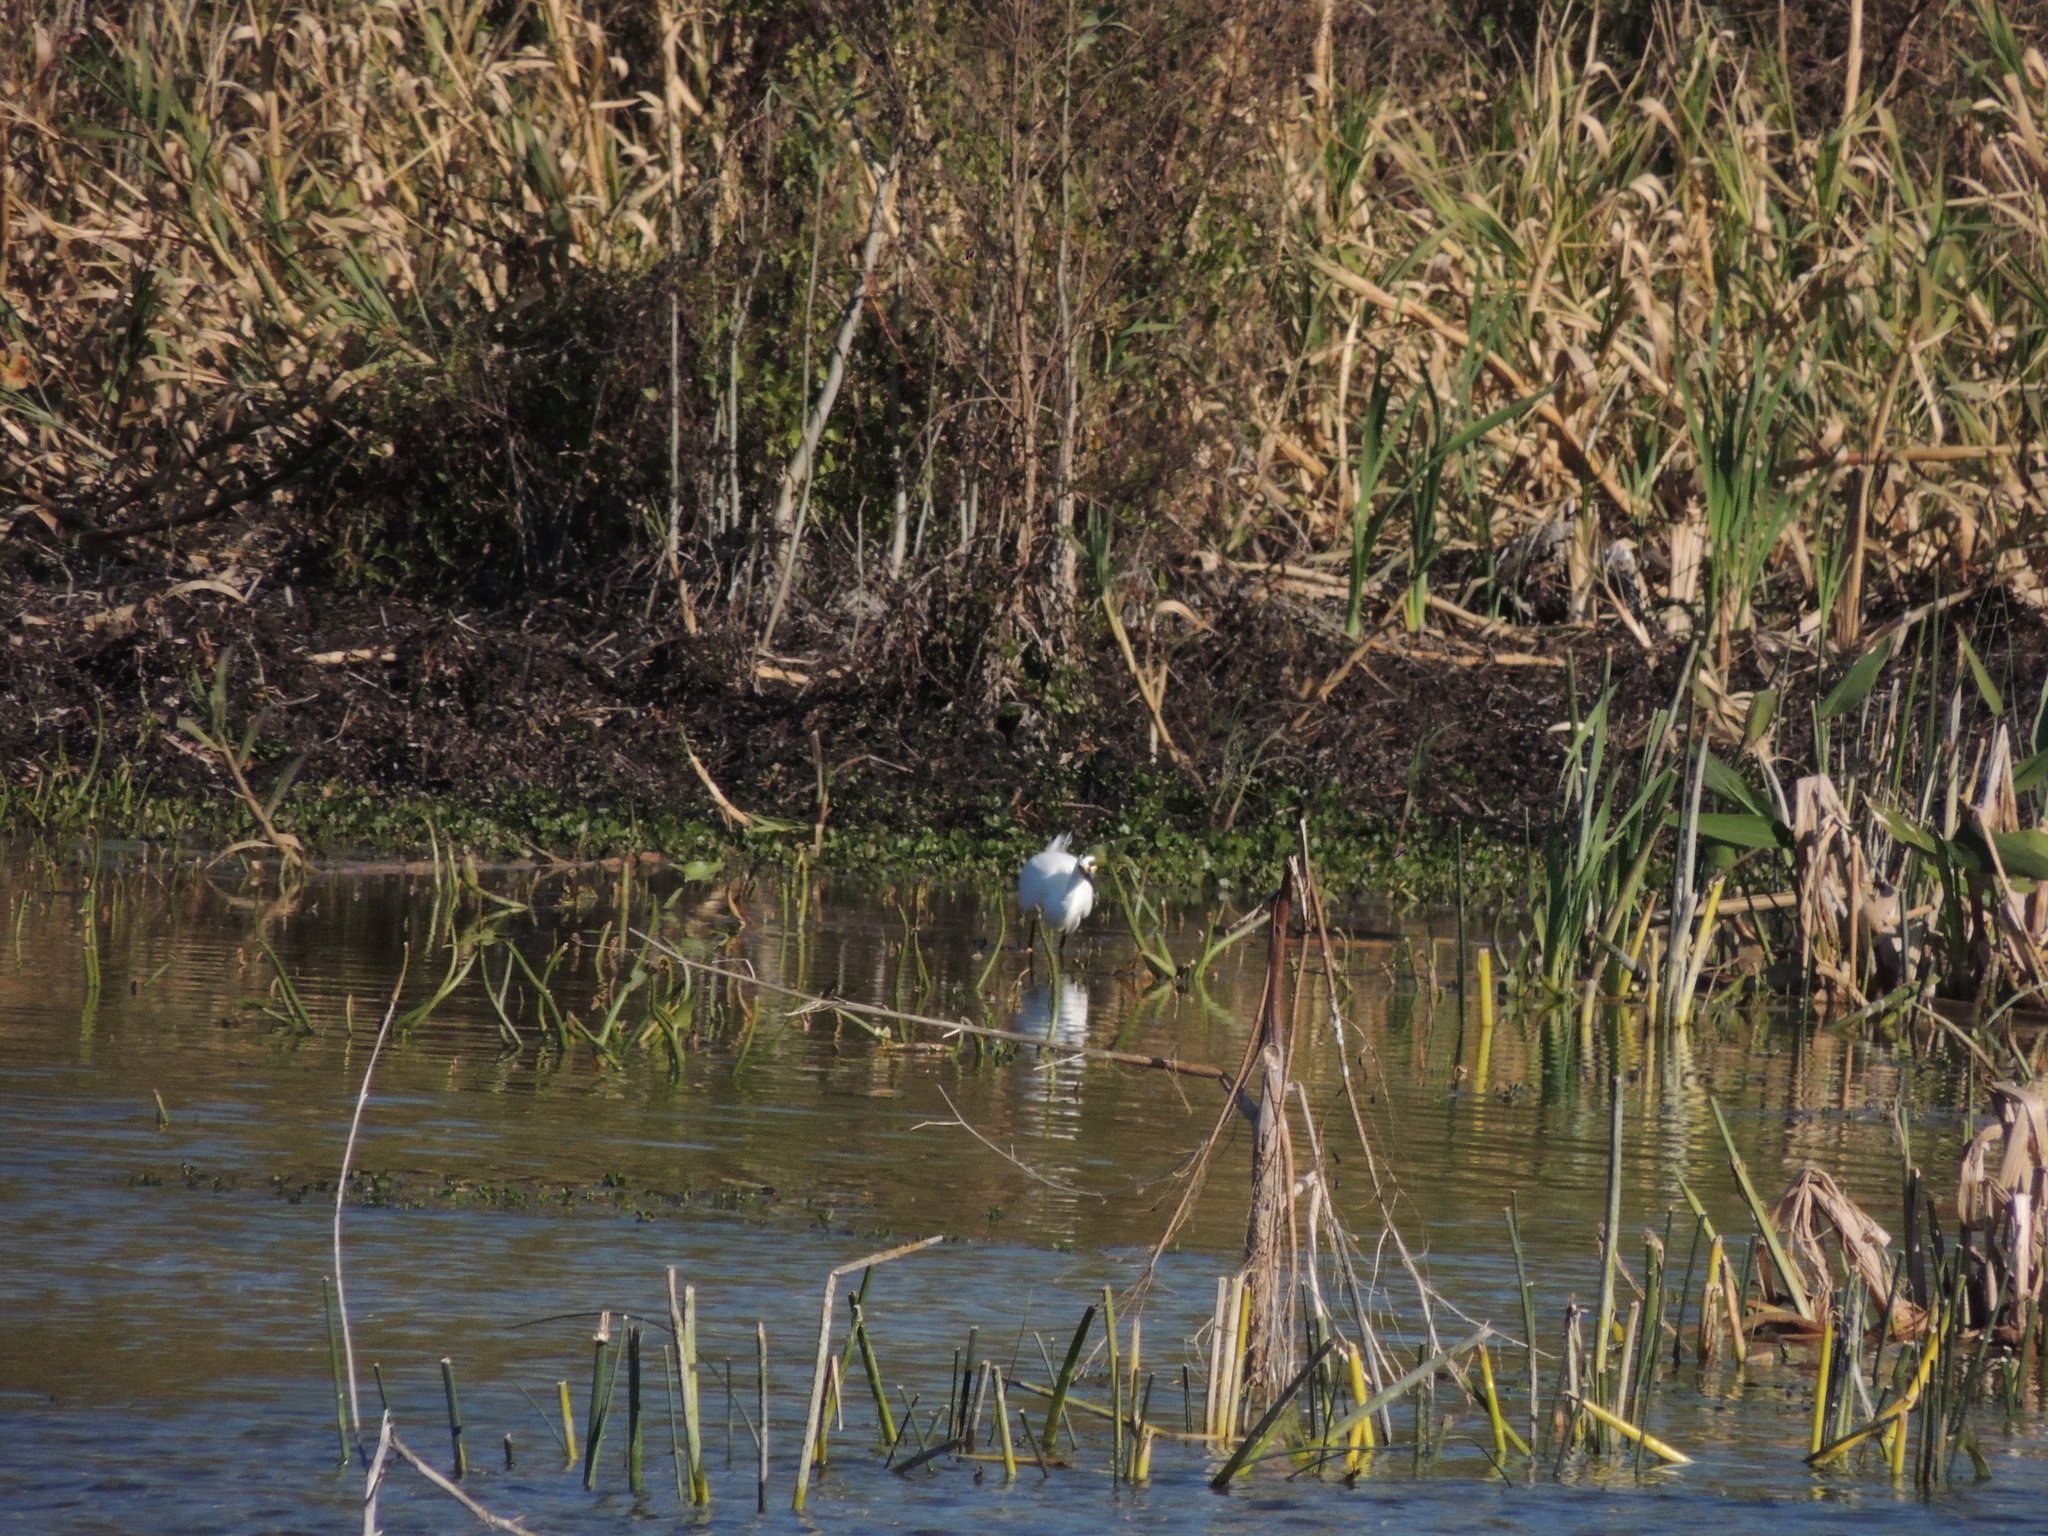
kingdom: Animalia
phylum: Chordata
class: Aves
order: Pelecaniformes
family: Ardeidae
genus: Egretta
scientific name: Egretta thula
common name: Snowy egret
